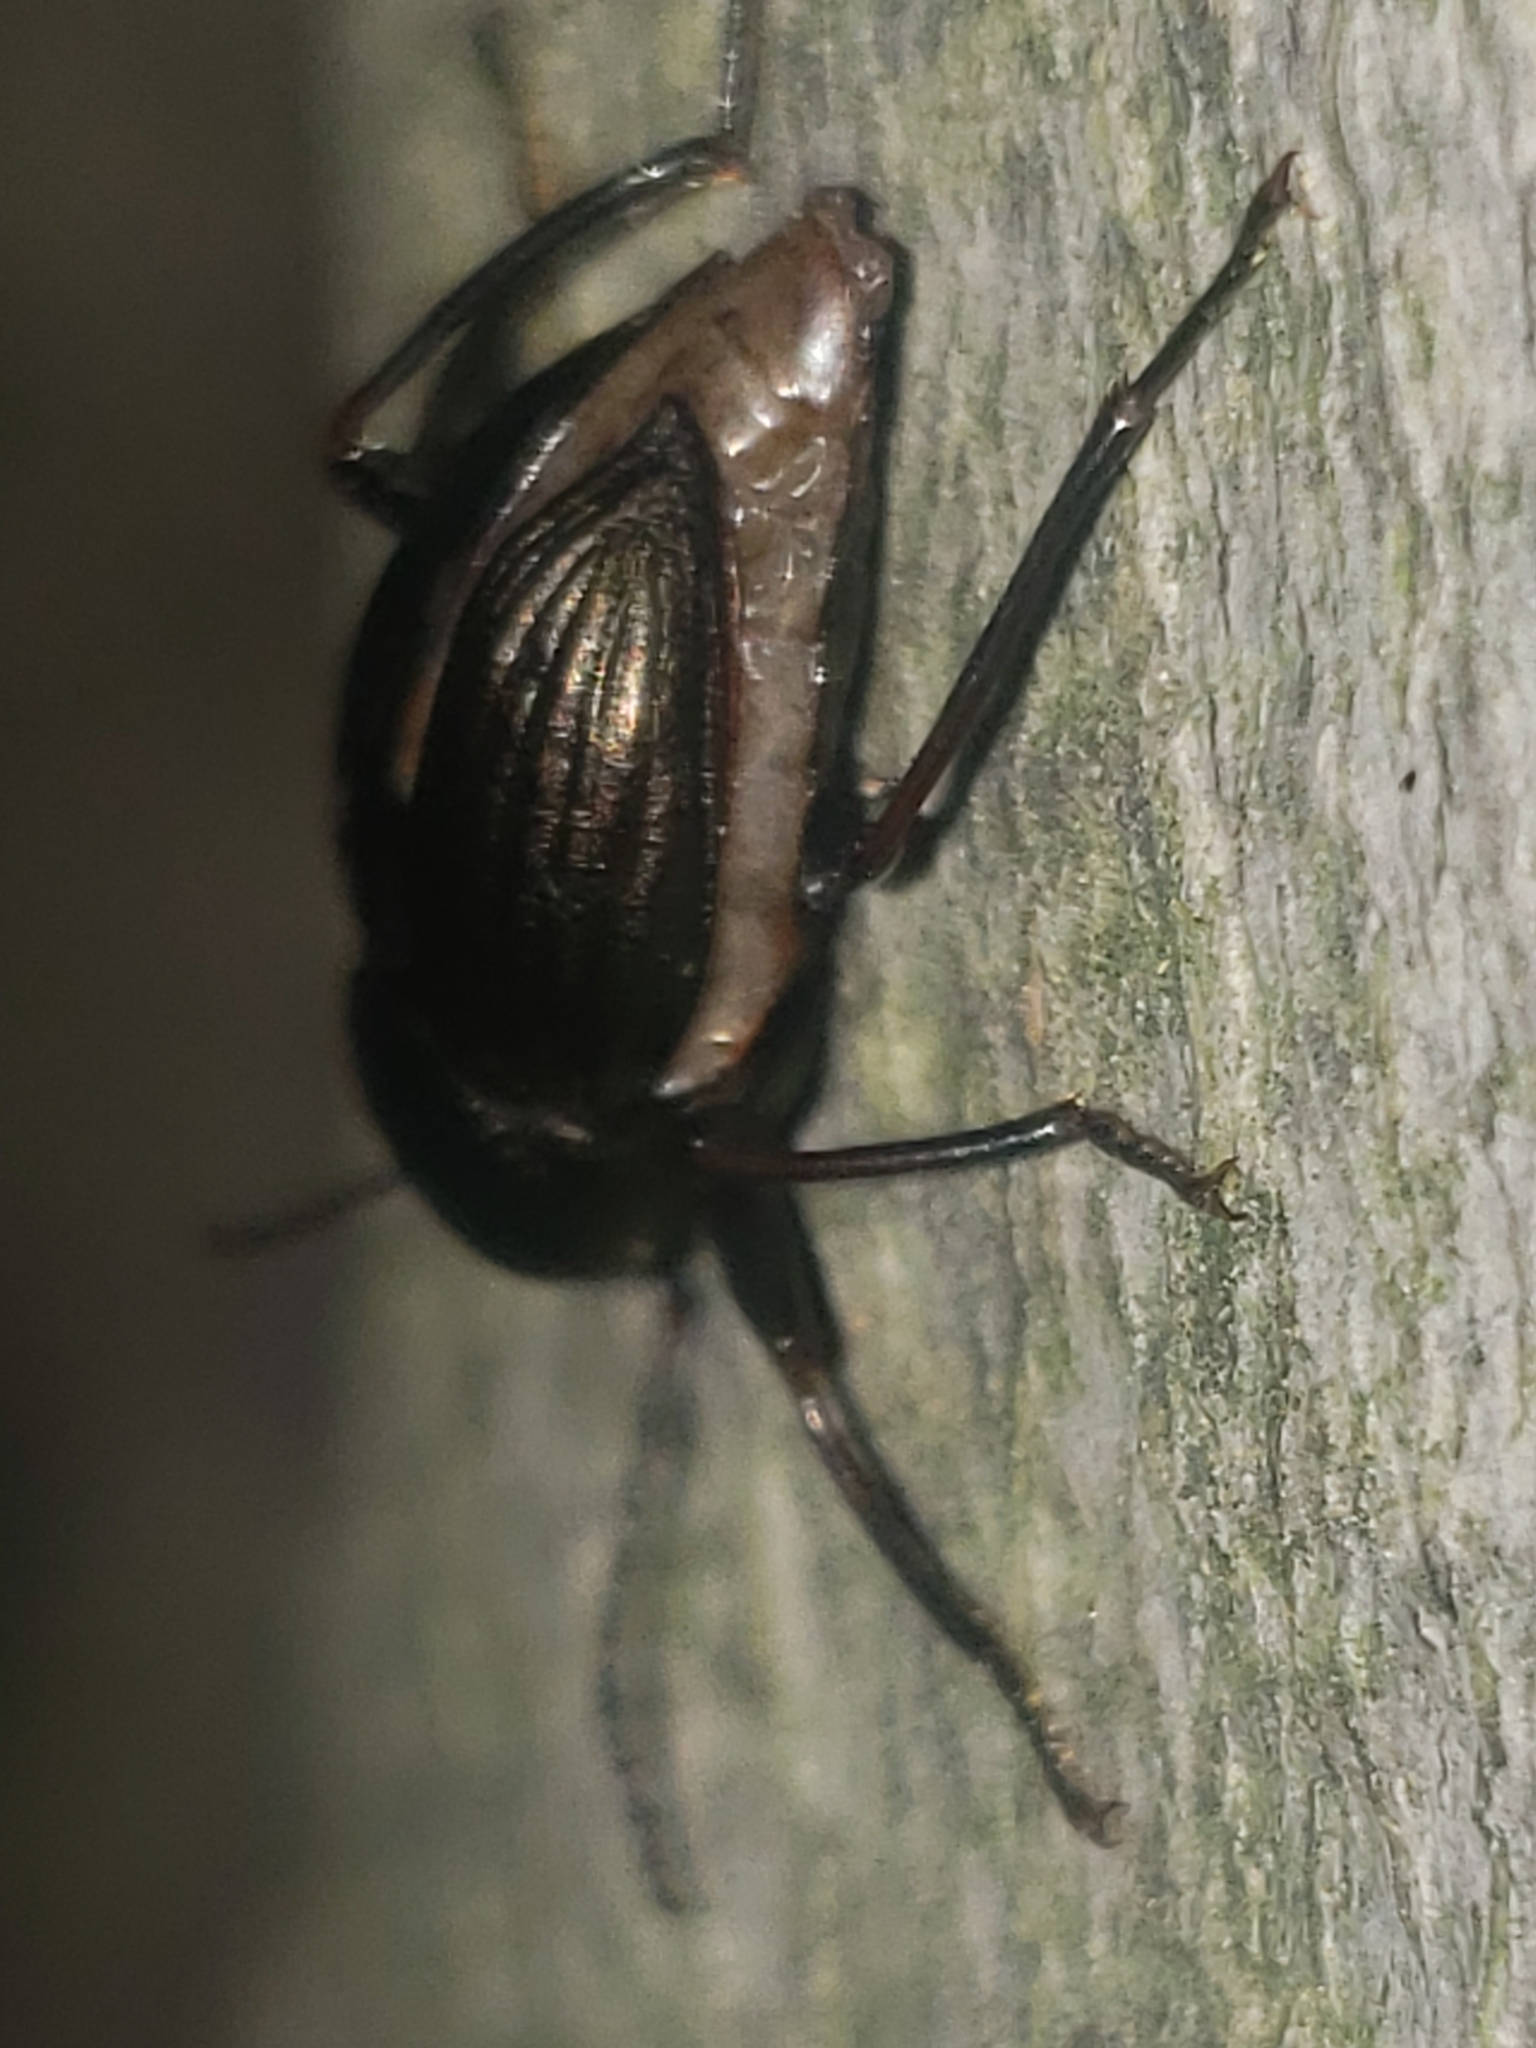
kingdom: Animalia
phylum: Arthropoda
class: Insecta
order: Coleoptera
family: Tenebrionidae
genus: Meracantha
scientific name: Meracantha contracta
